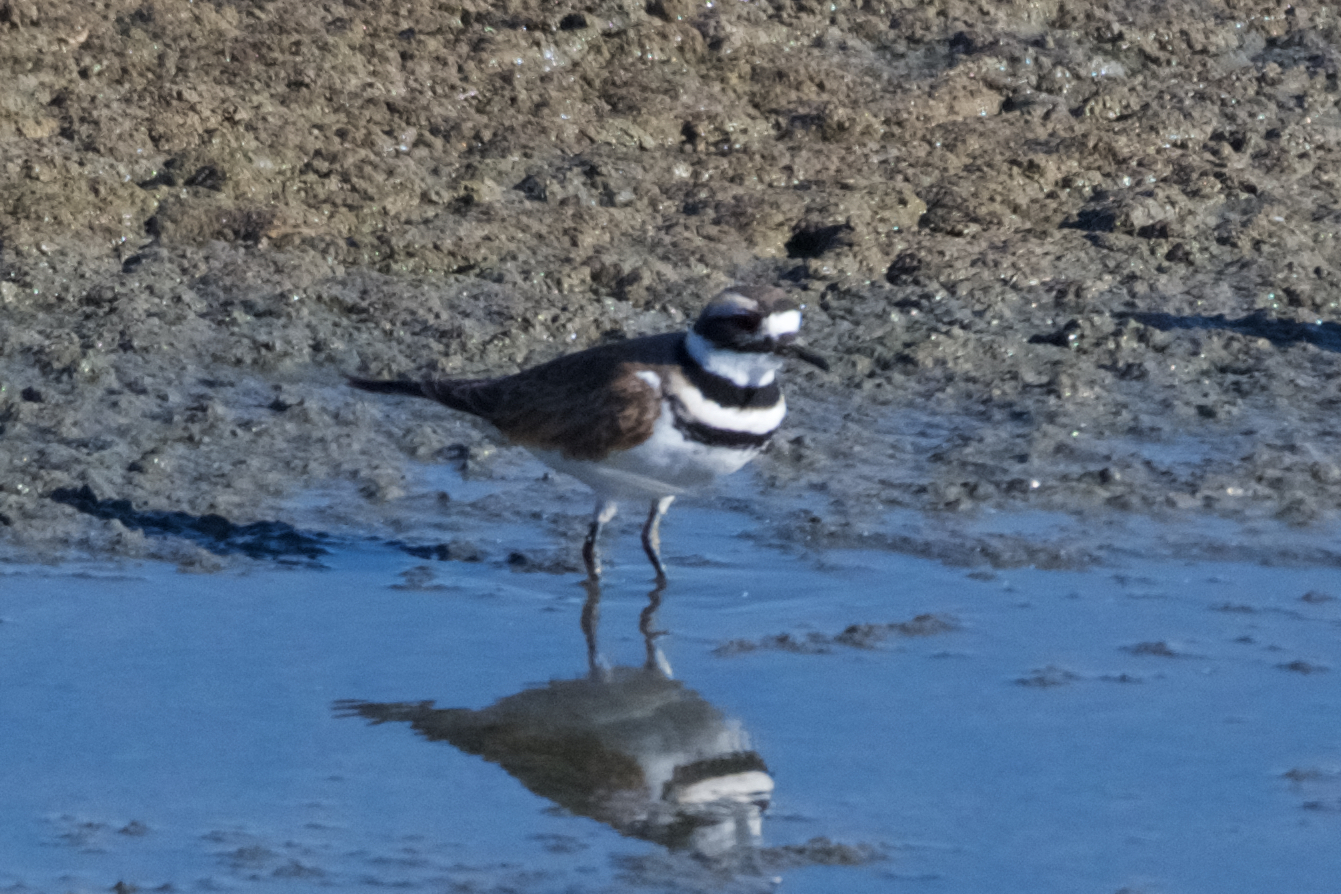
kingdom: Animalia
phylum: Chordata
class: Aves
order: Charadriiformes
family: Charadriidae
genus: Charadrius
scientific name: Charadrius vociferus
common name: Killdeer
